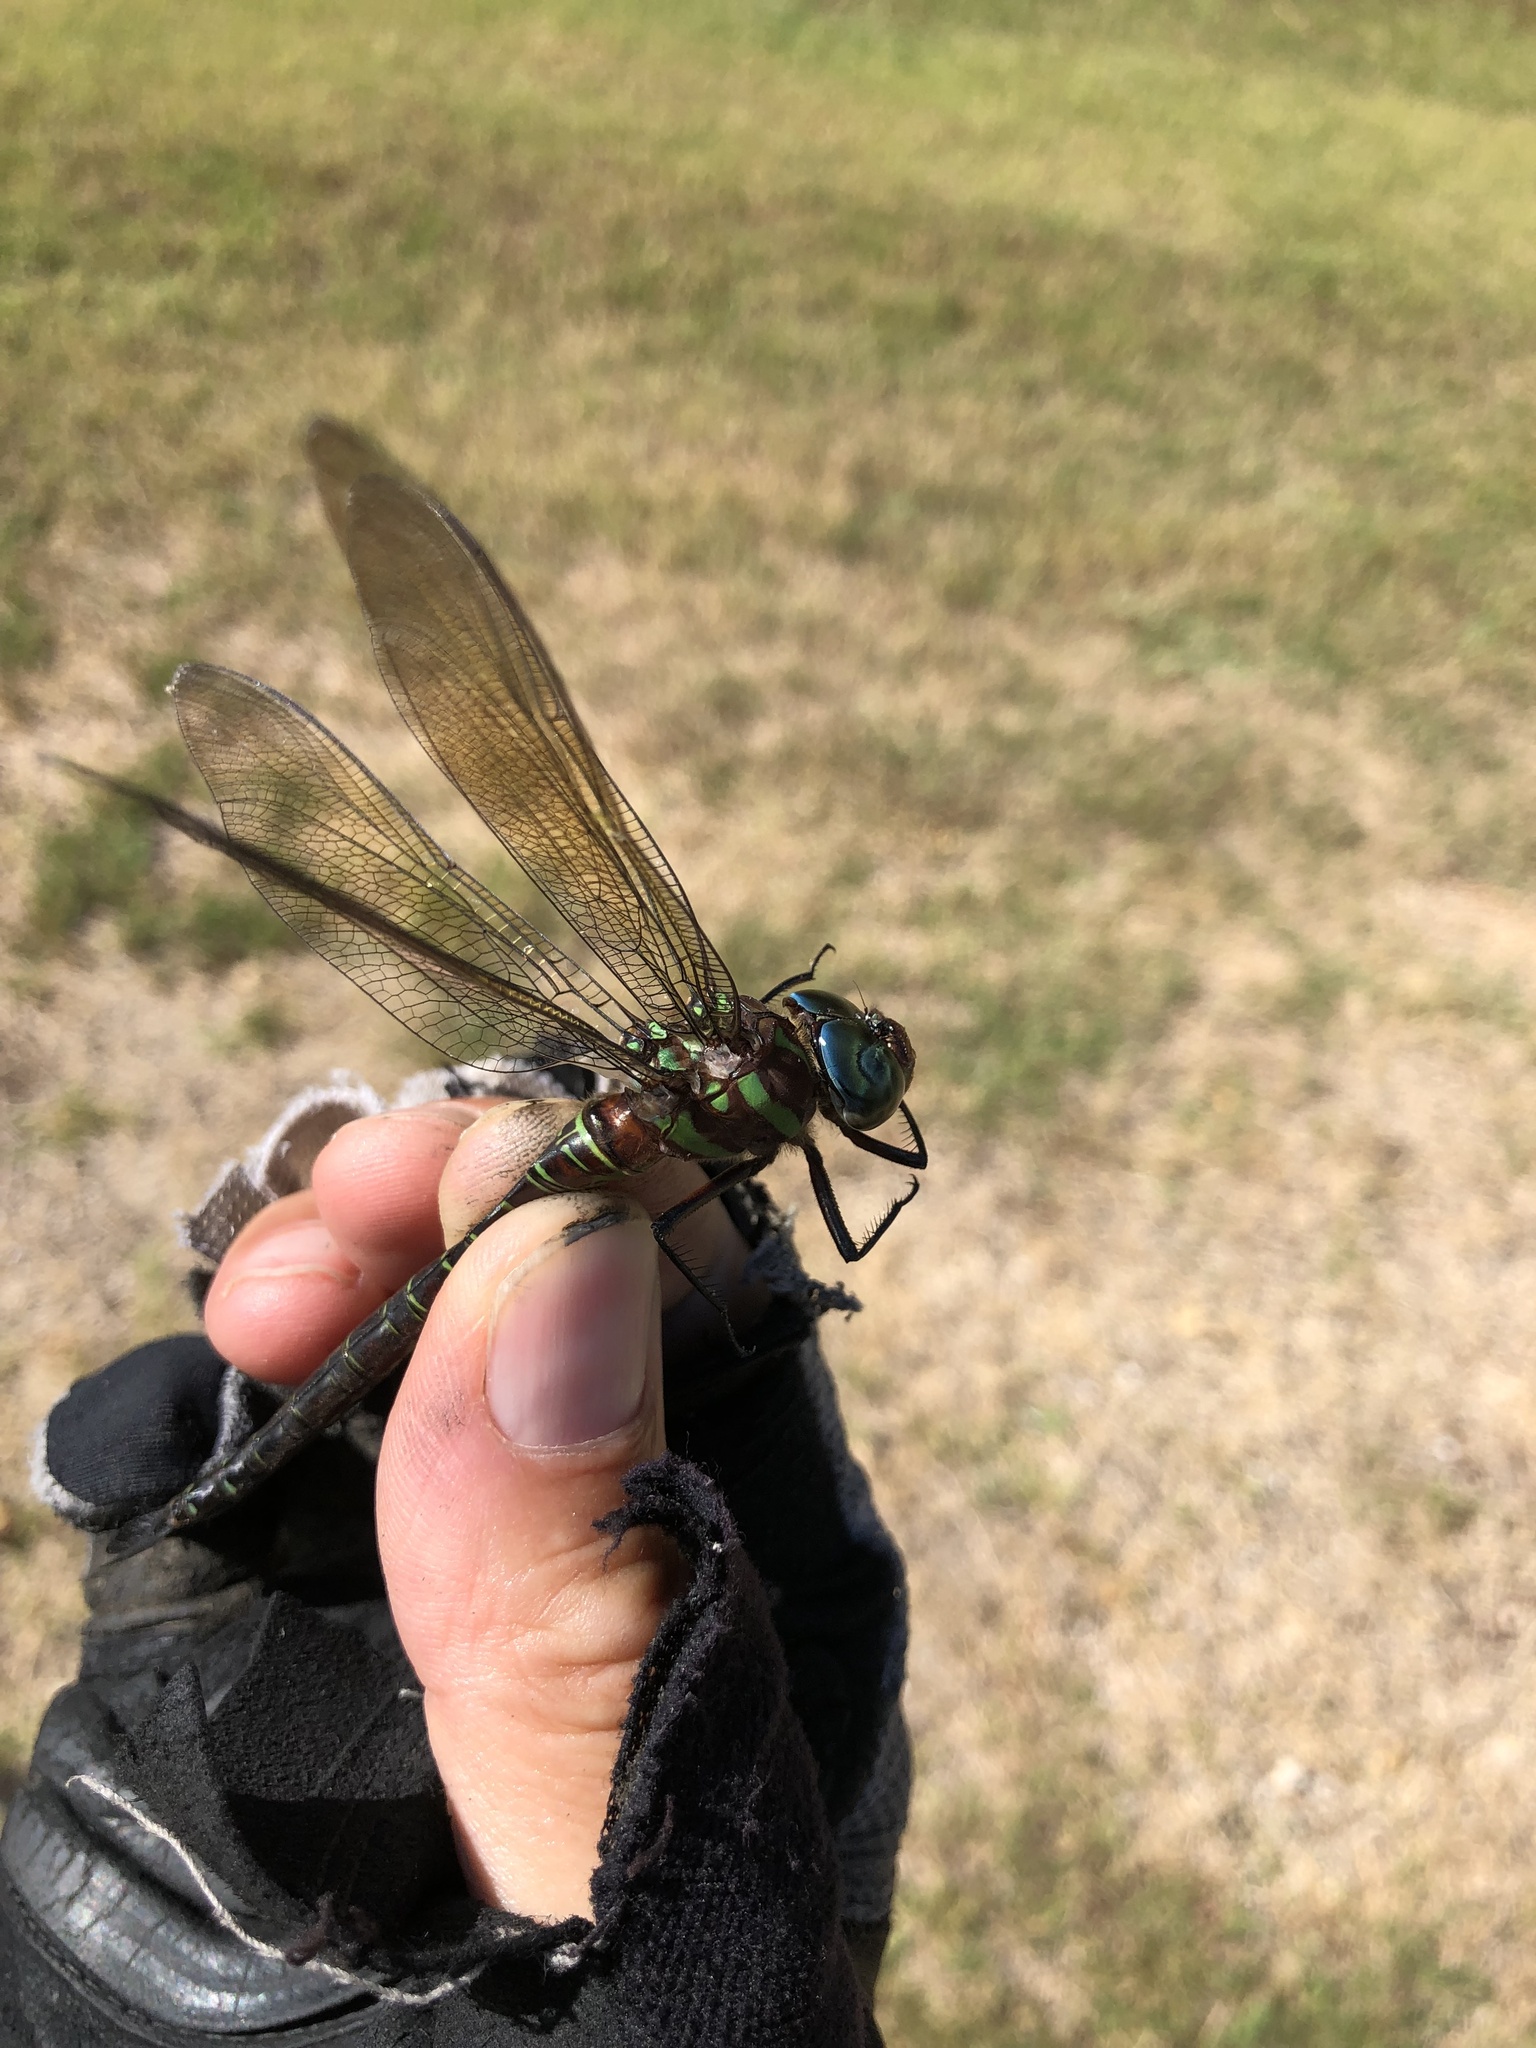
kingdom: Animalia
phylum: Arthropoda
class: Insecta
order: Odonata
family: Aeshnidae
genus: Epiaeschna
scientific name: Epiaeschna heros
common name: Swamp darner
